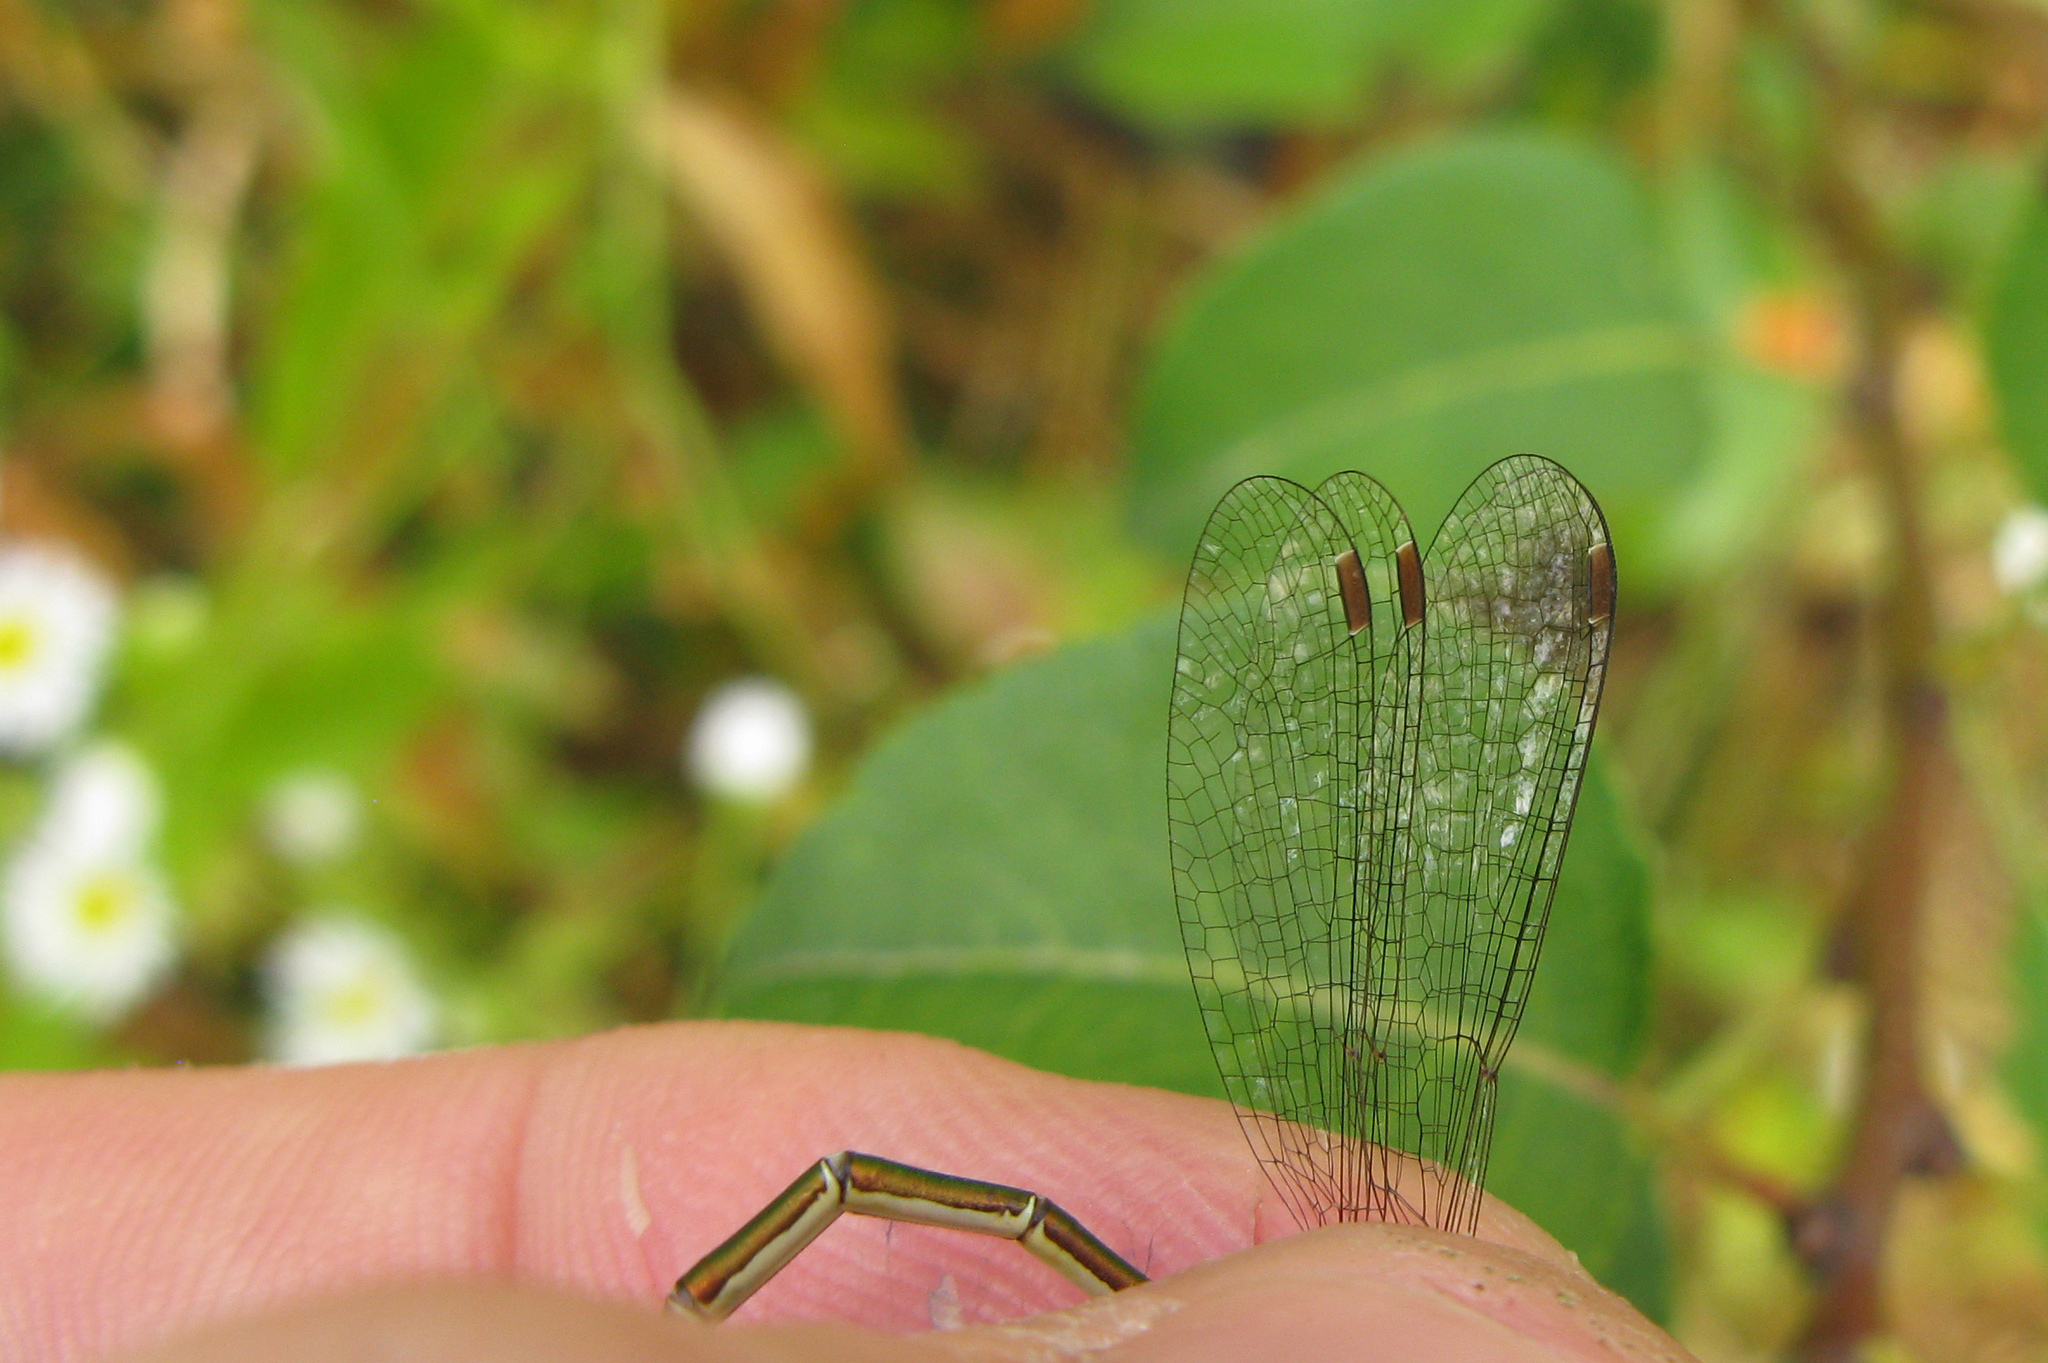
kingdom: Animalia
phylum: Arthropoda
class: Insecta
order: Odonata
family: Lestidae
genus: Lestes
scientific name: Lestes virens
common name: Small emerald spreadwing
